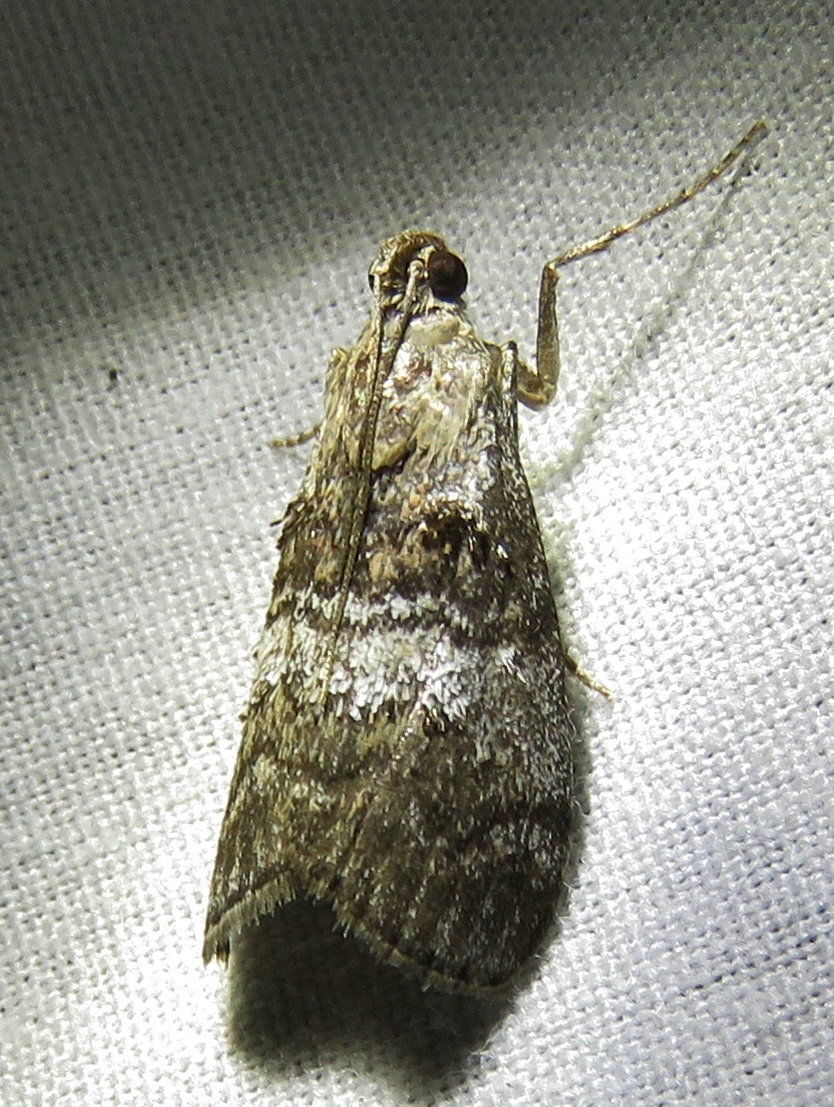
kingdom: Animalia
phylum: Arthropoda
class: Insecta
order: Lepidoptera
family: Pyralidae
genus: Pococera
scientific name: Pococera asperatella
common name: Maple webworm moth
